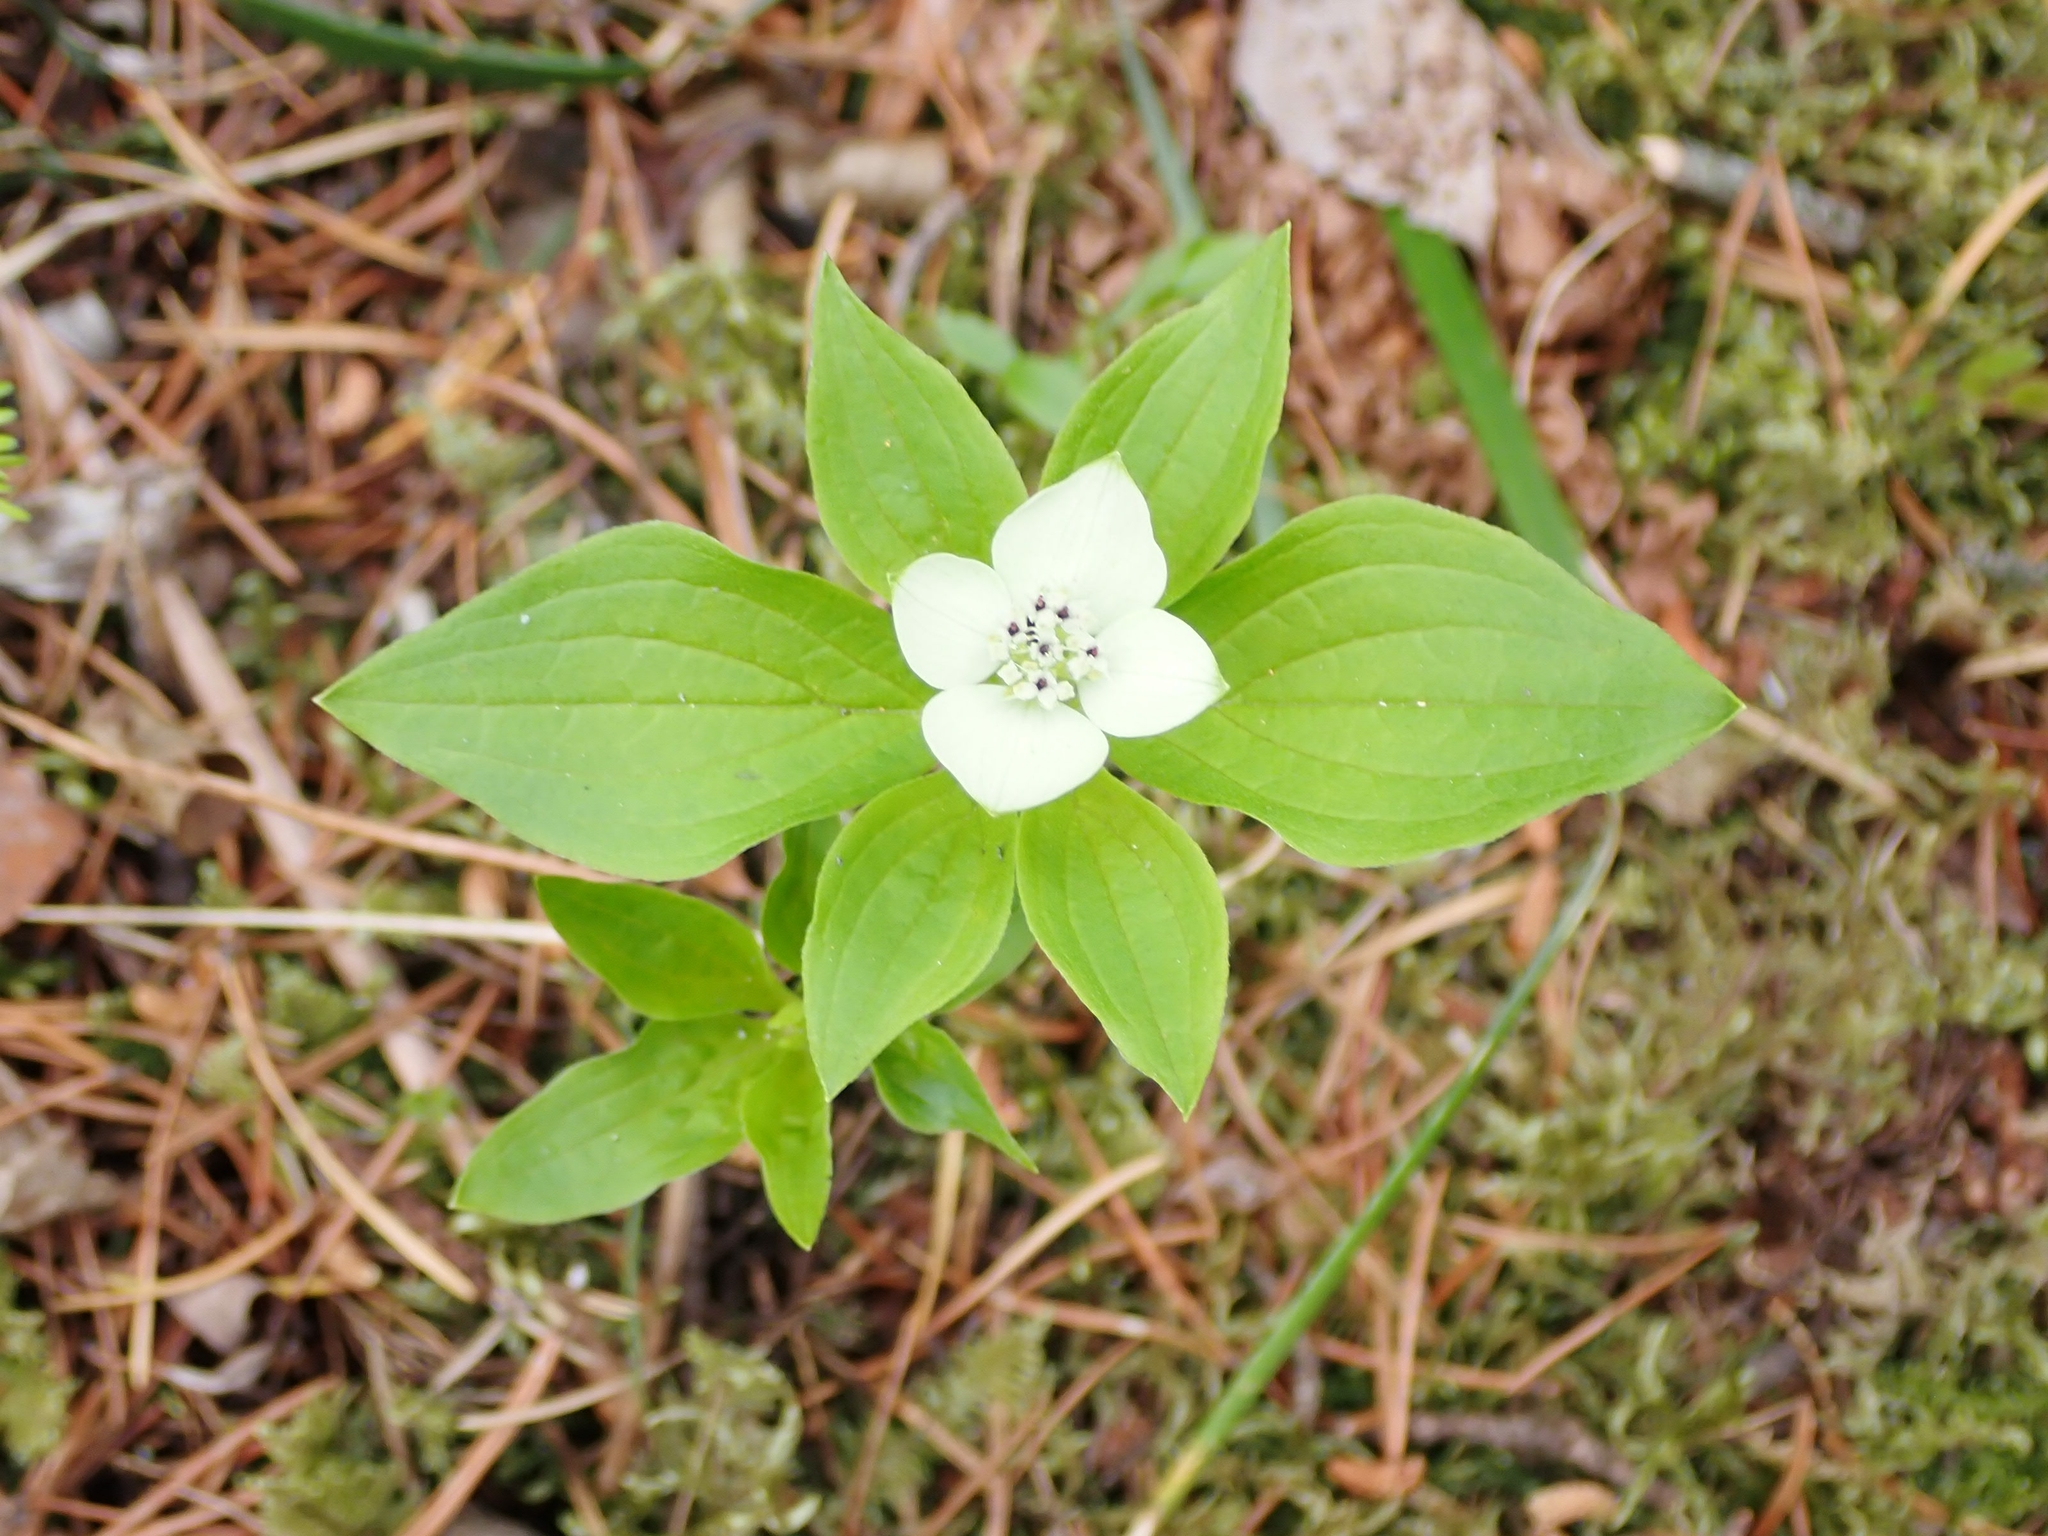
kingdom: Plantae
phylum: Tracheophyta
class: Magnoliopsida
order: Cornales
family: Cornaceae
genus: Cornus
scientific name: Cornus canadensis
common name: Creeping dogwood
